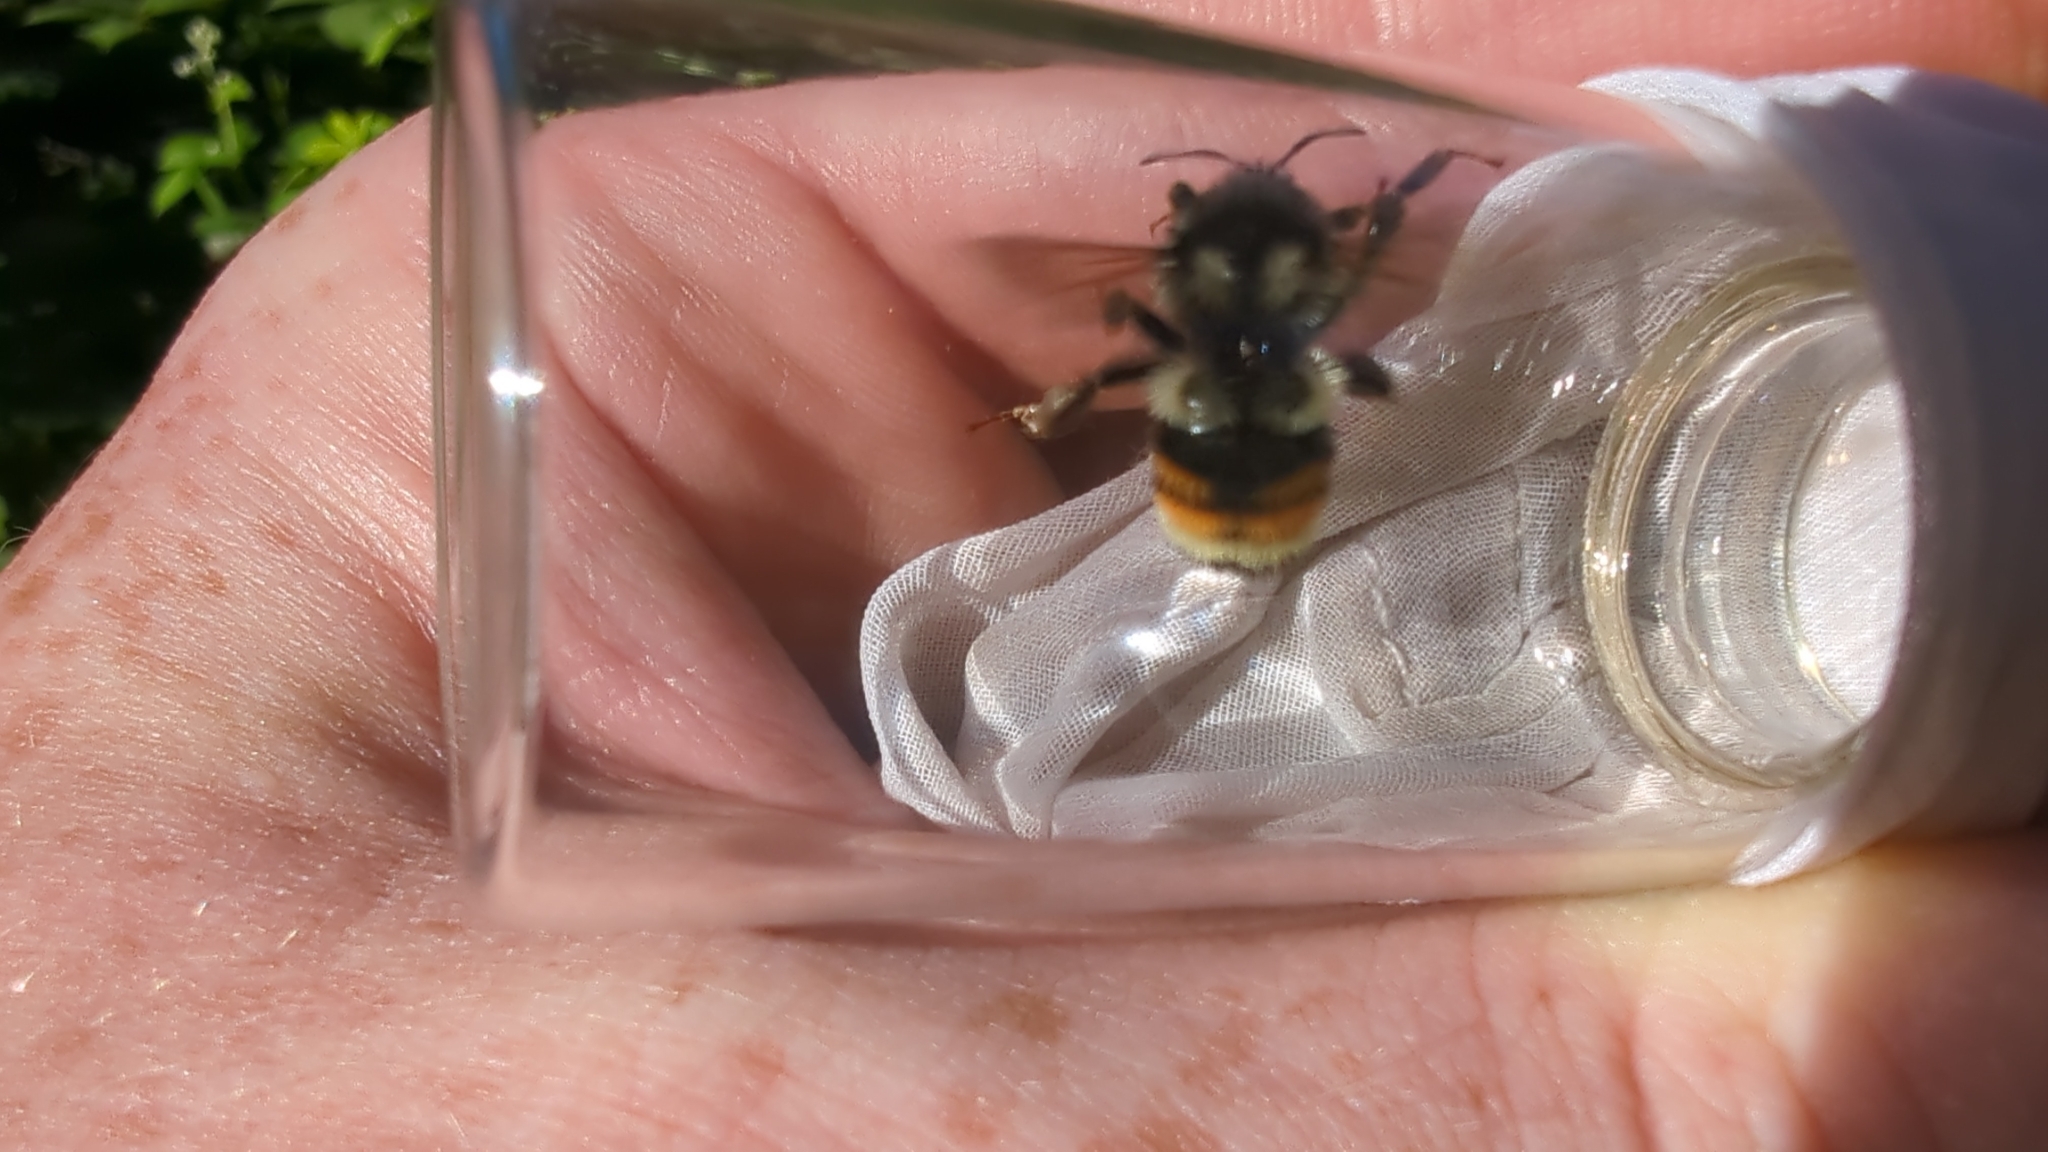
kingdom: Animalia
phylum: Arthropoda
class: Insecta
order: Hymenoptera
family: Apidae
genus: Bombus
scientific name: Bombus vancouverensis
